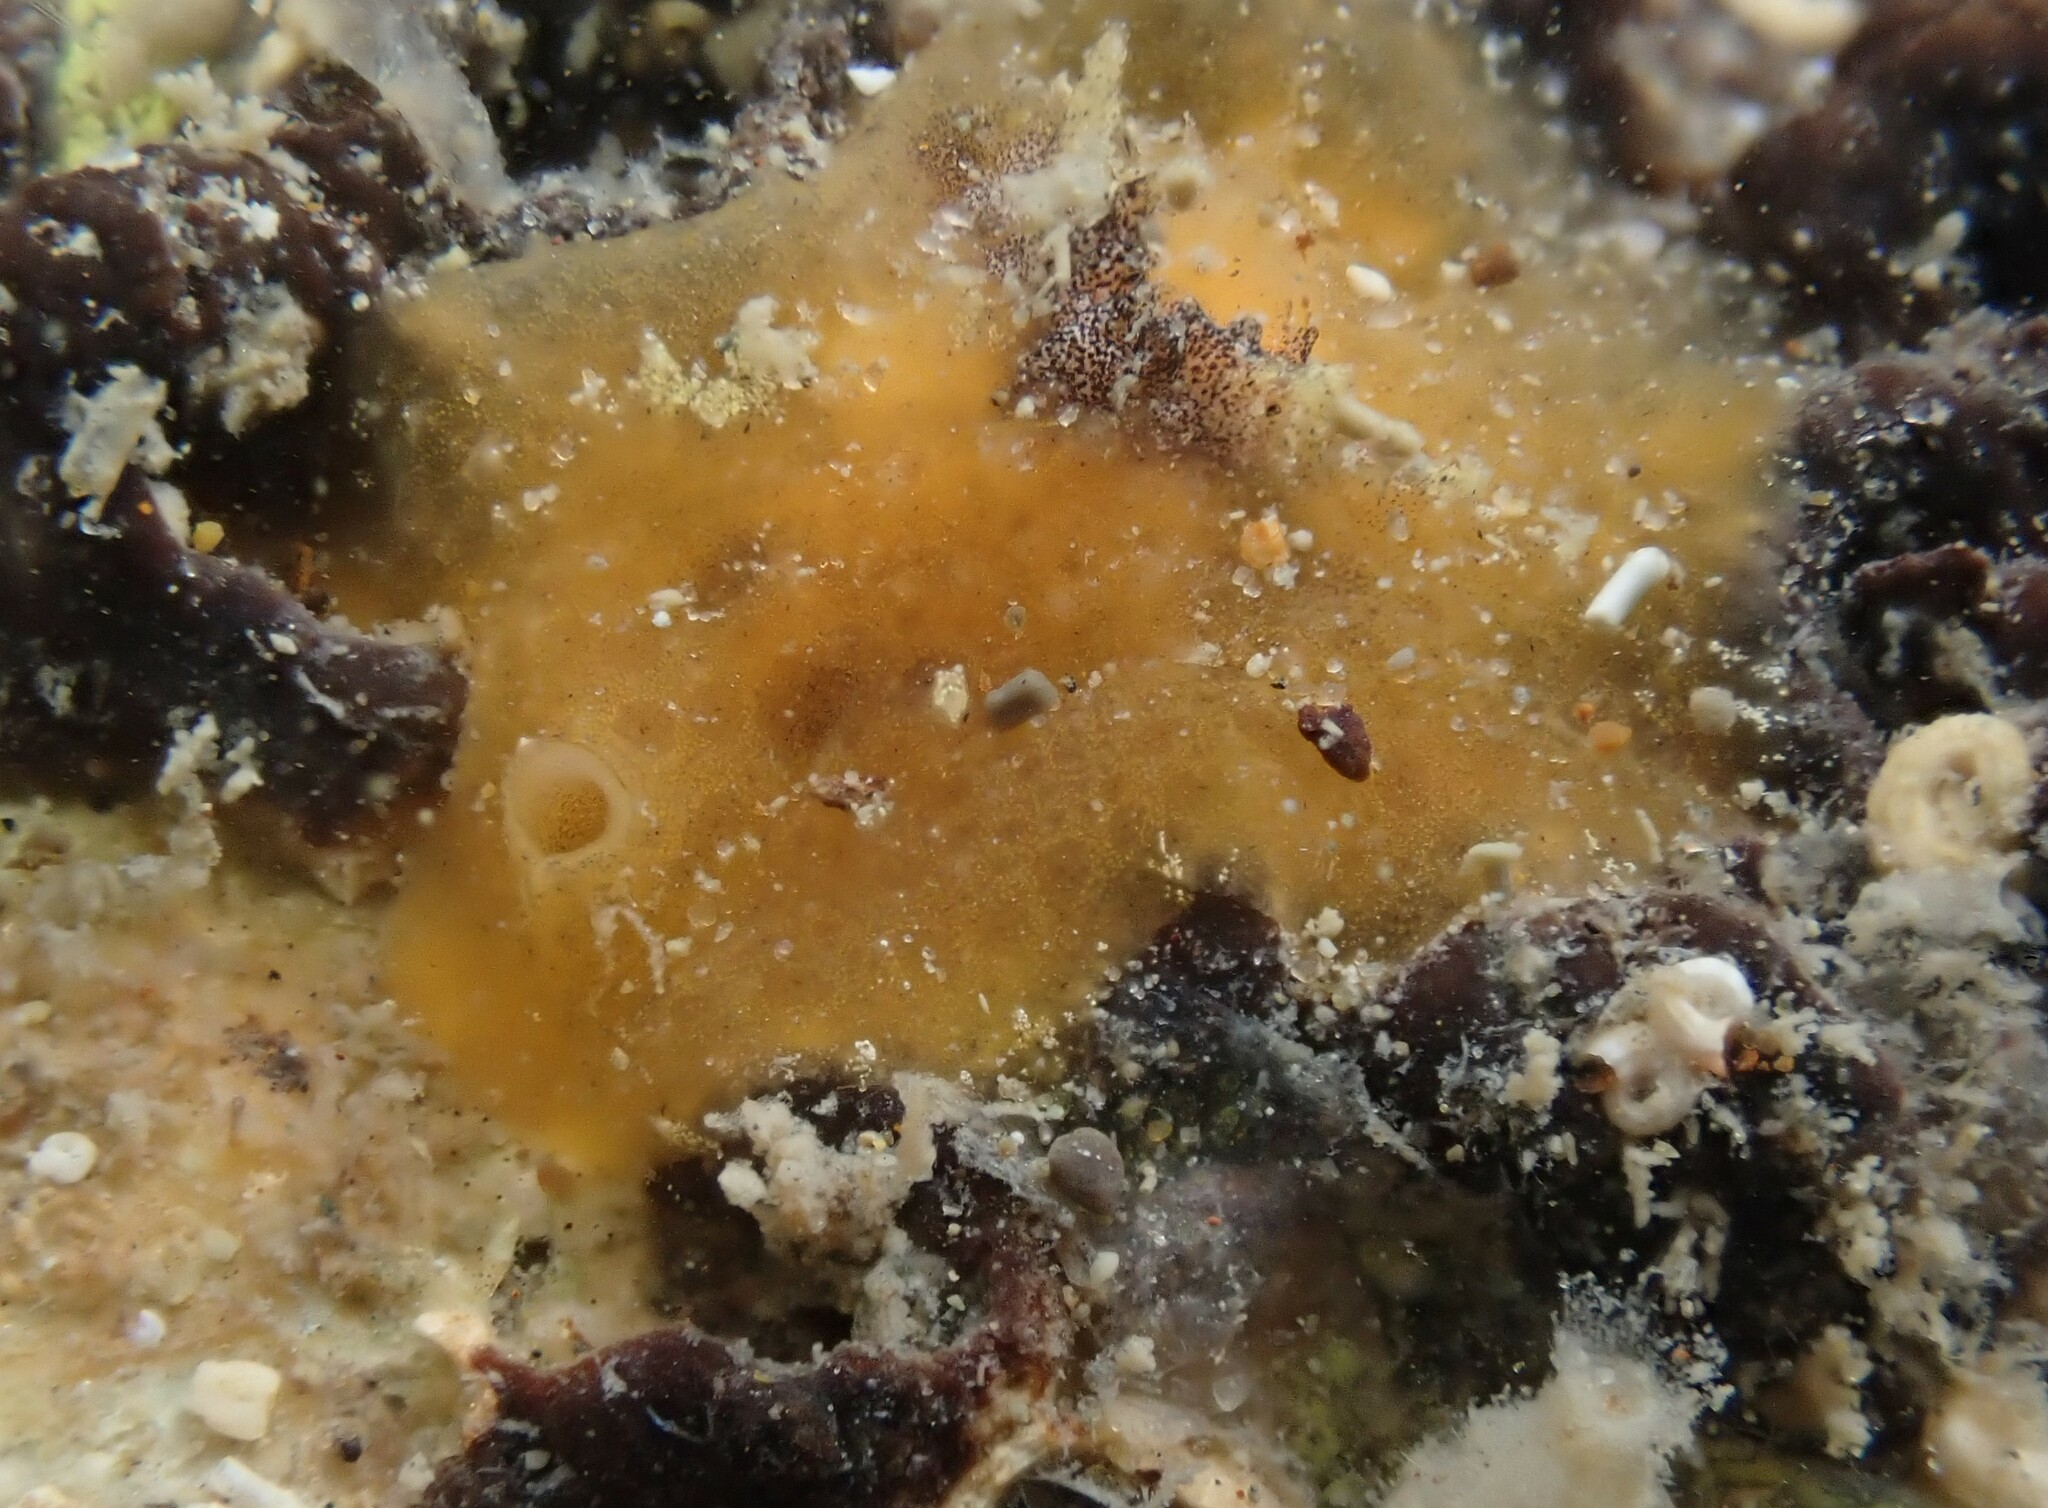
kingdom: Animalia
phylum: Mollusca
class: Gastropoda
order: Littorinimorpha
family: Velutinidae
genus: Lamellaria
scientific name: Lamellaria ophione
